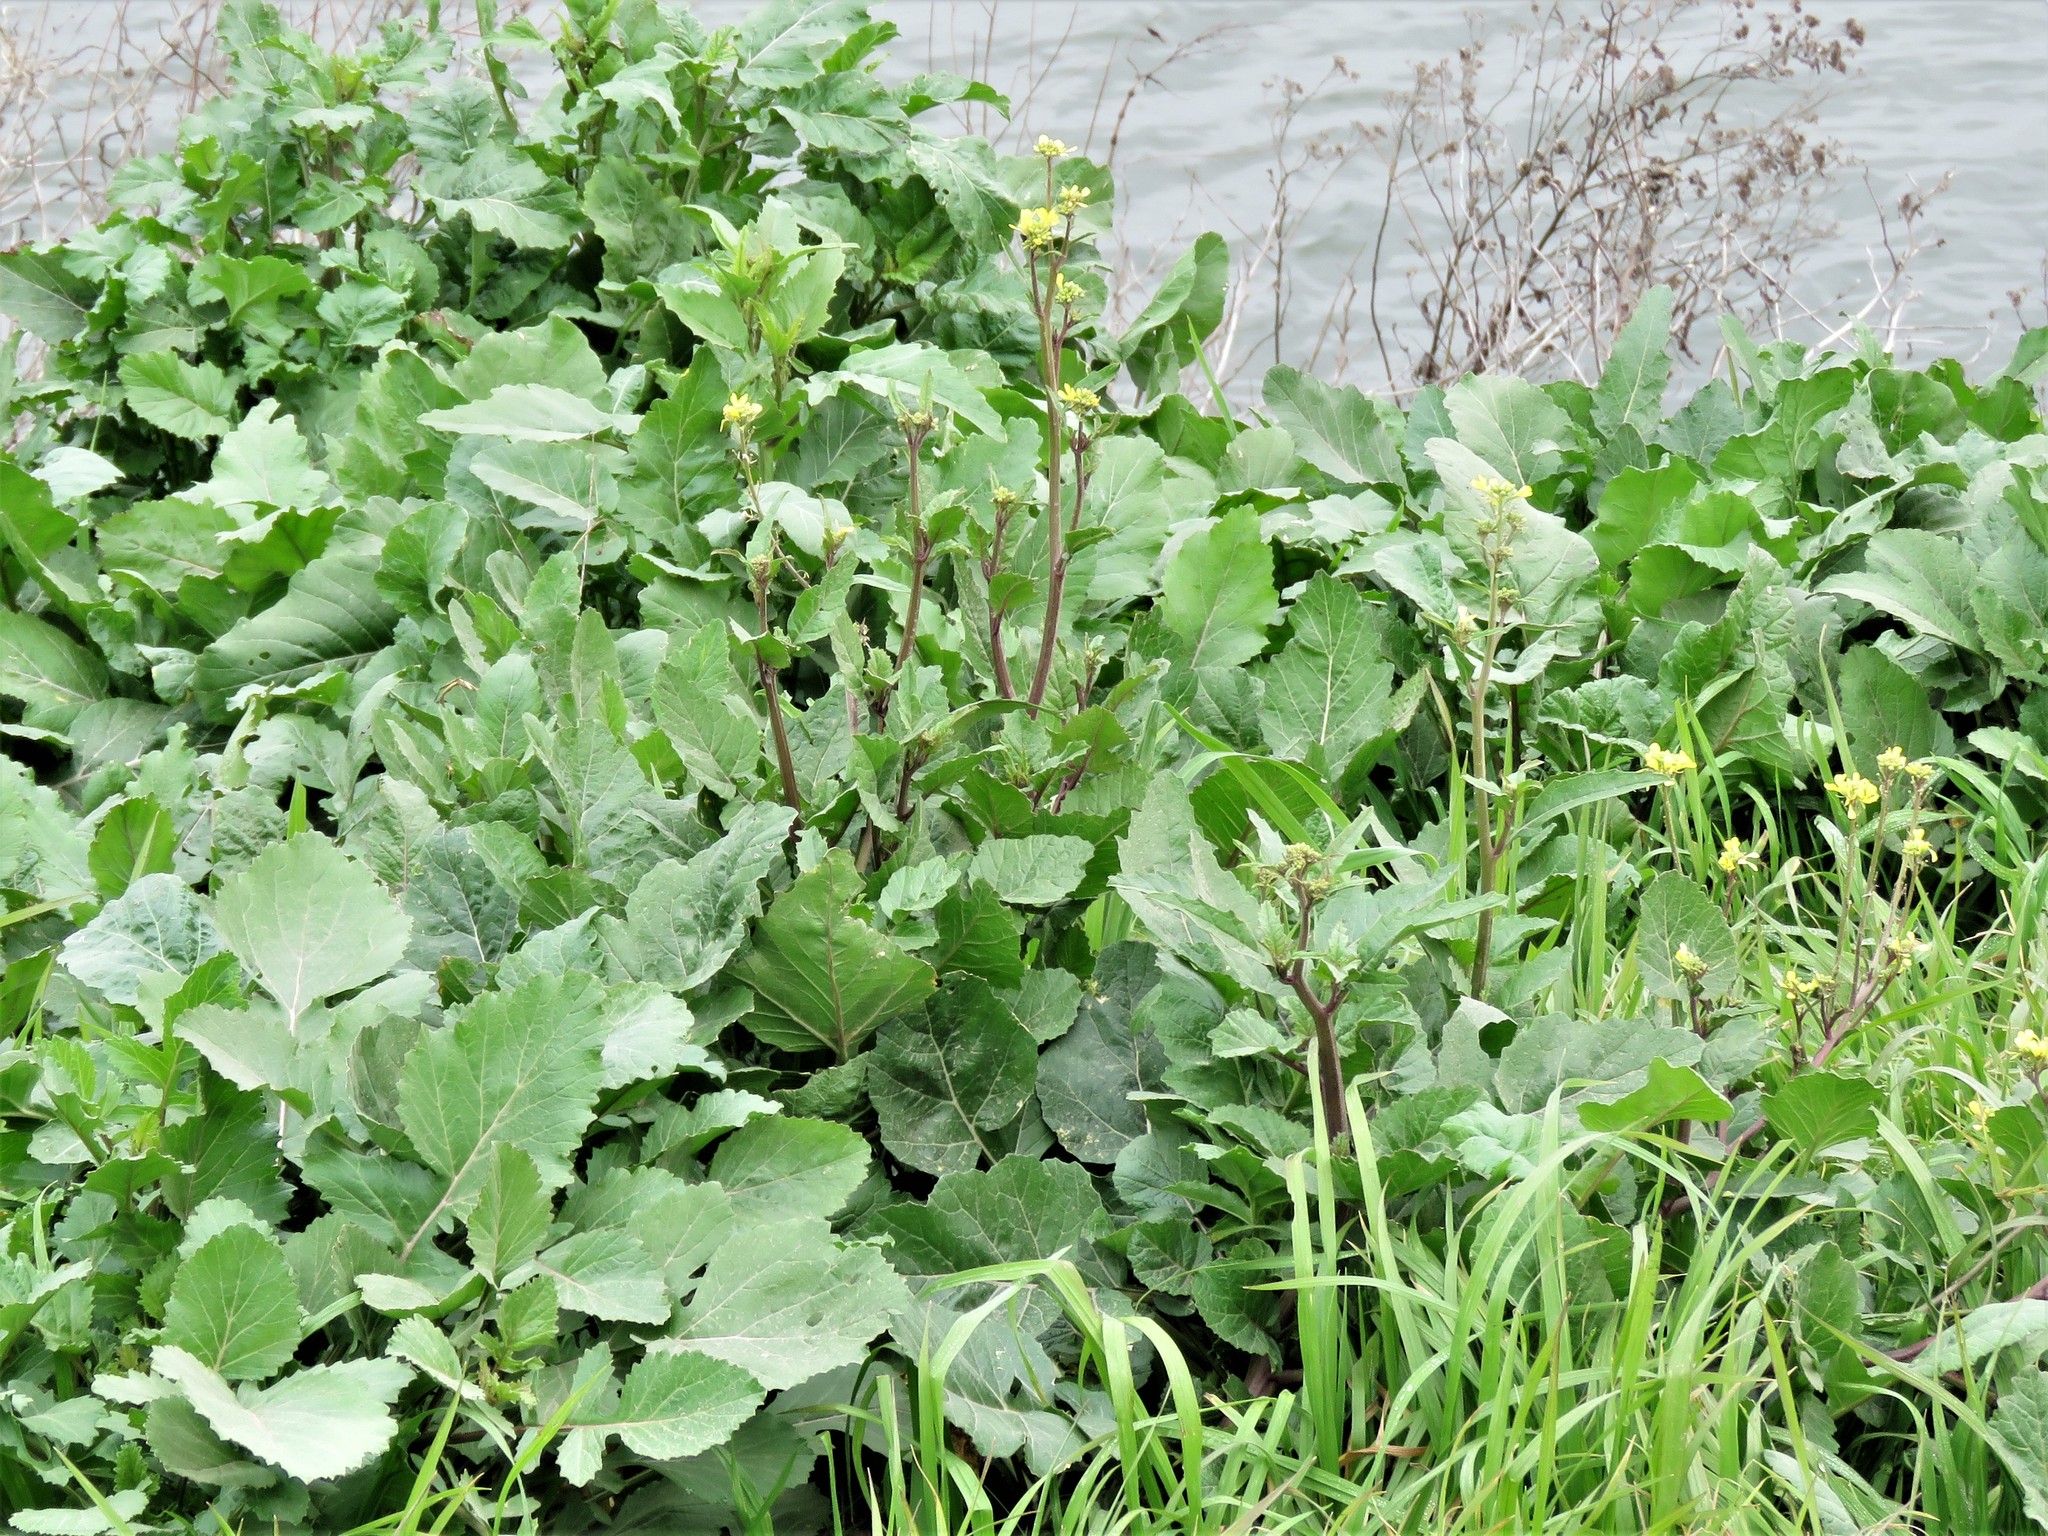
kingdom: Plantae
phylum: Tracheophyta
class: Magnoliopsida
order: Brassicales
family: Brassicaceae
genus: Rapistrum
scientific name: Rapistrum rugosum
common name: Annual bastardcabbage
